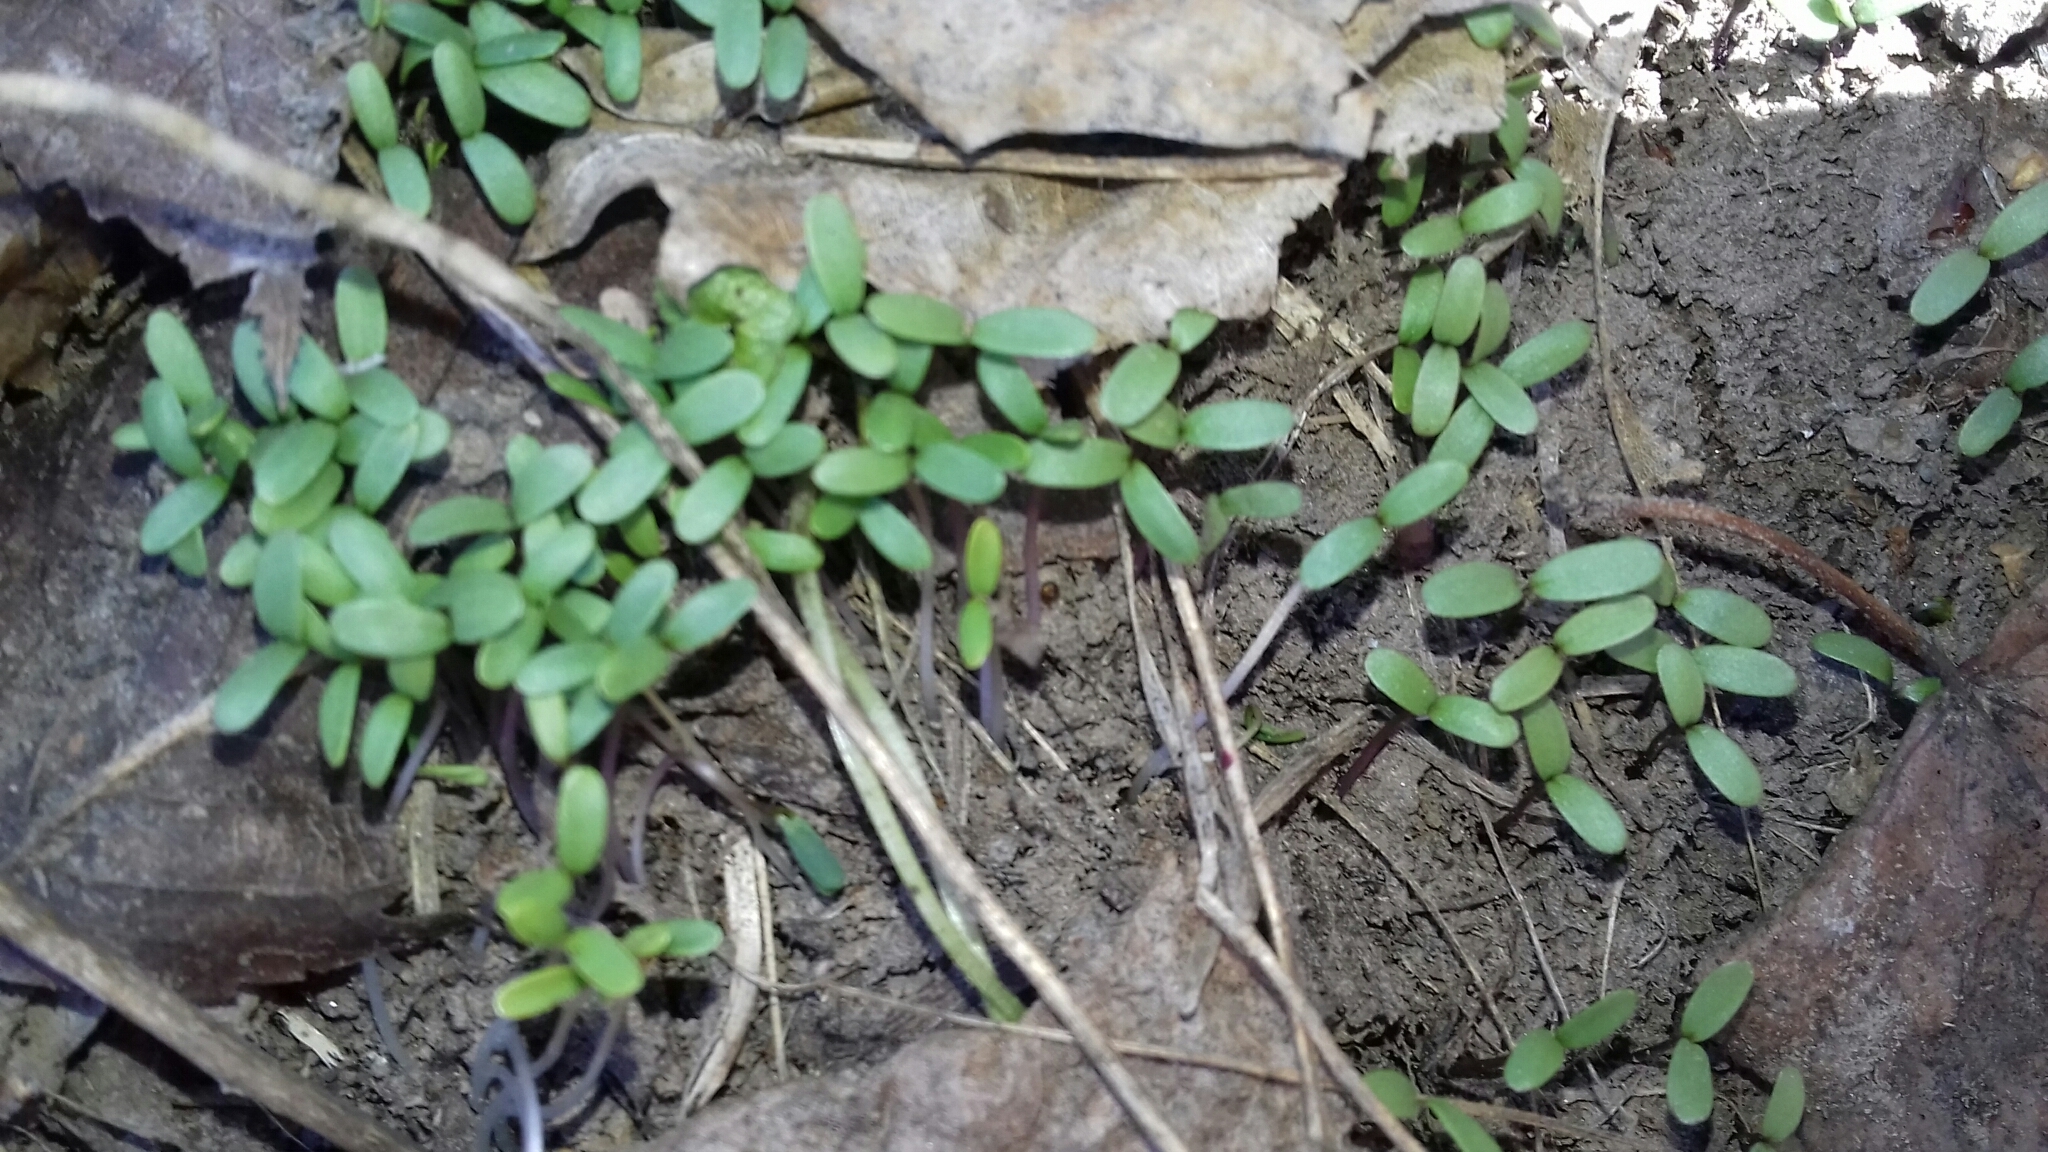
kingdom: Plantae
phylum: Tracheophyta
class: Magnoliopsida
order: Brassicales
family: Brassicaceae
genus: Alliaria
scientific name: Alliaria petiolata
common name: Garlic mustard
